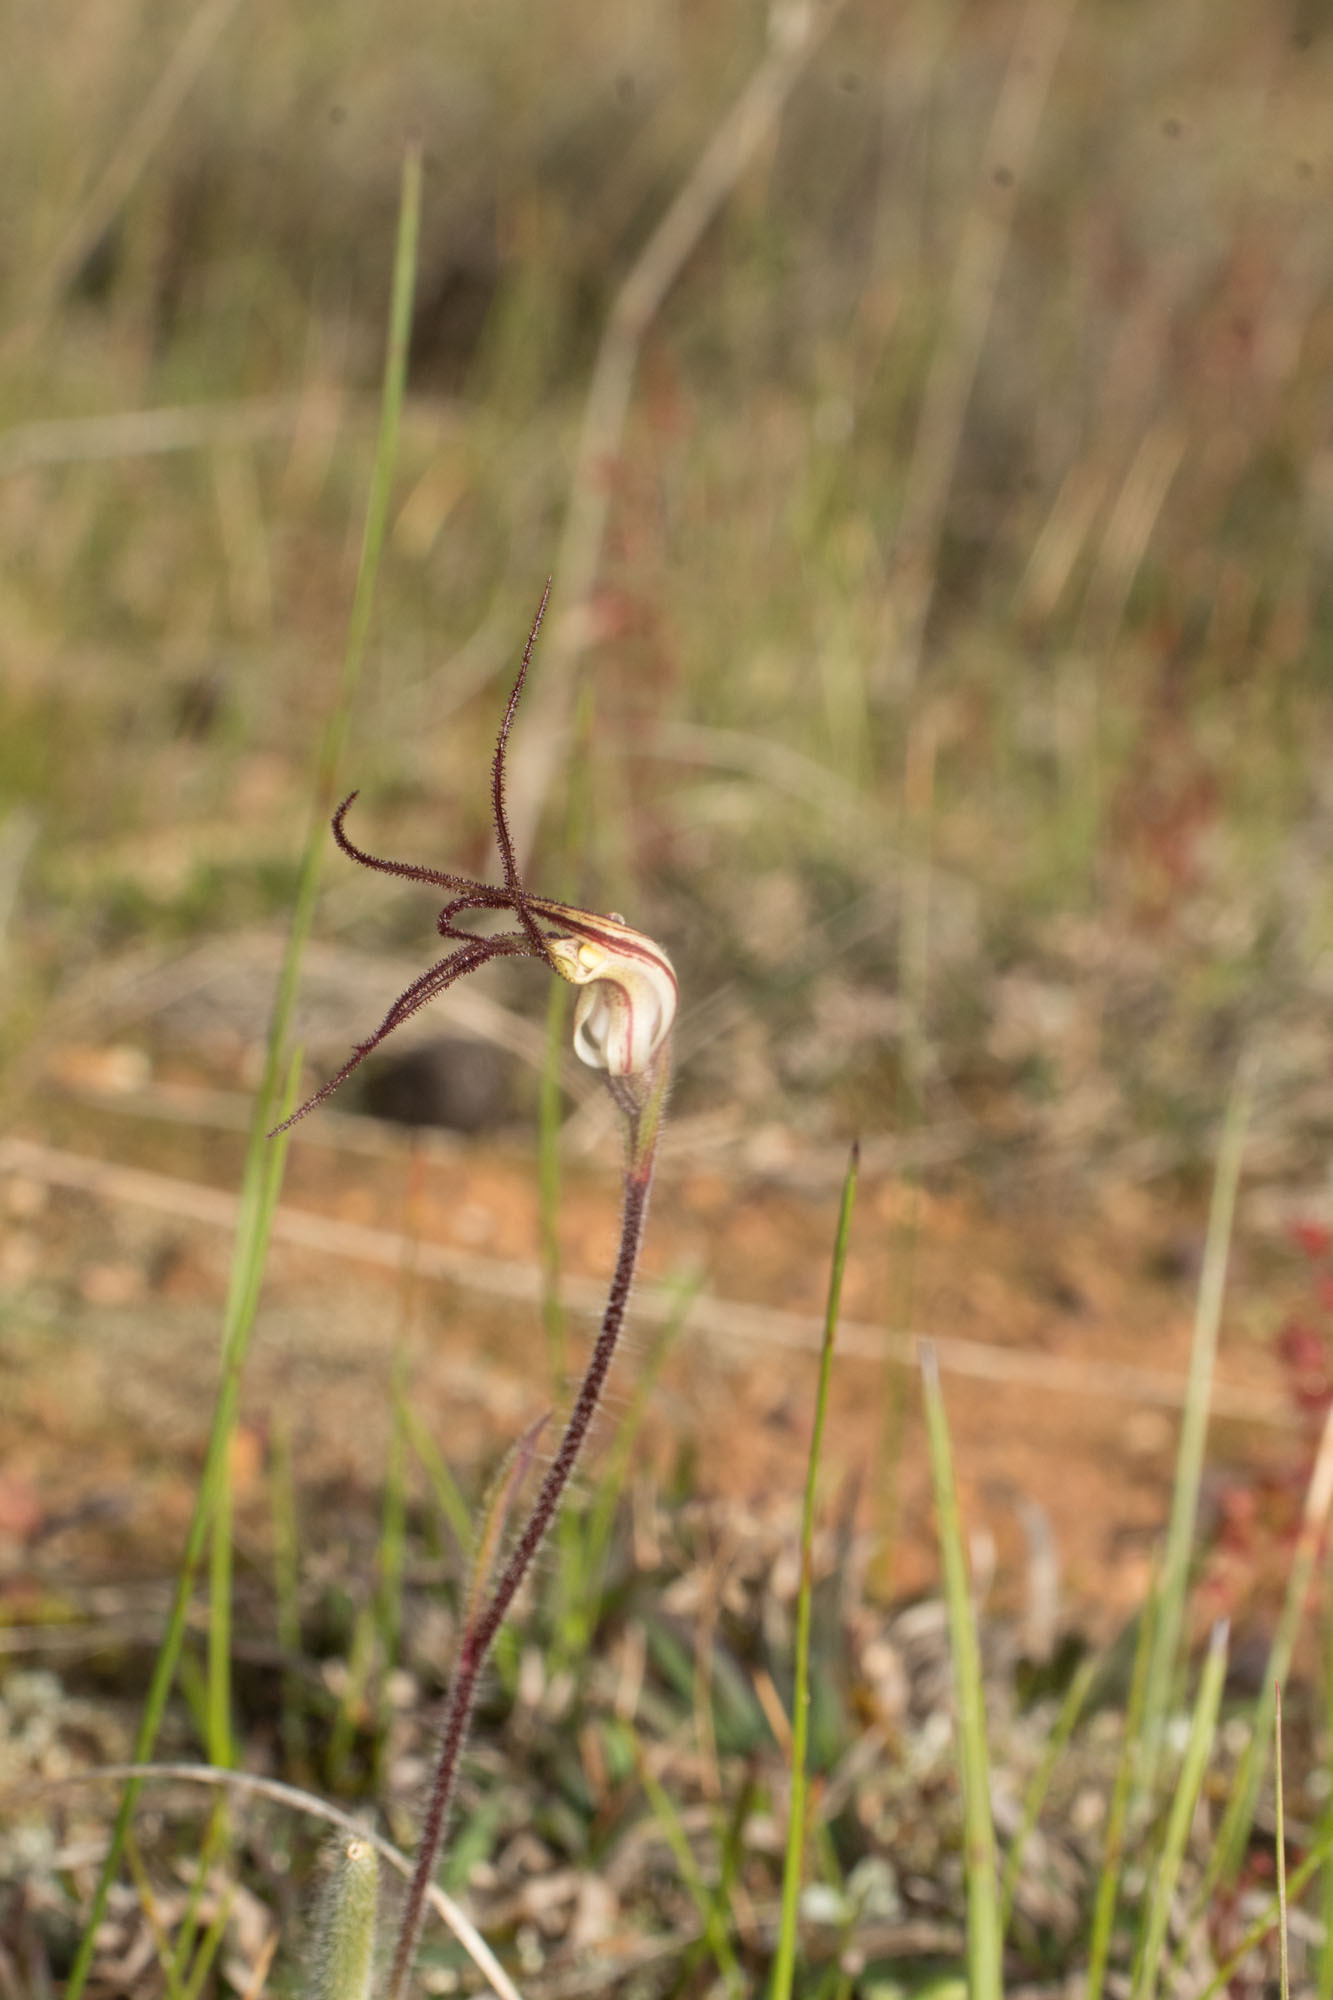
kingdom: Plantae
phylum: Tracheophyta
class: Liliopsida
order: Asparagales
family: Orchidaceae
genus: Caladenia
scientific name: Caladenia hiemalis
